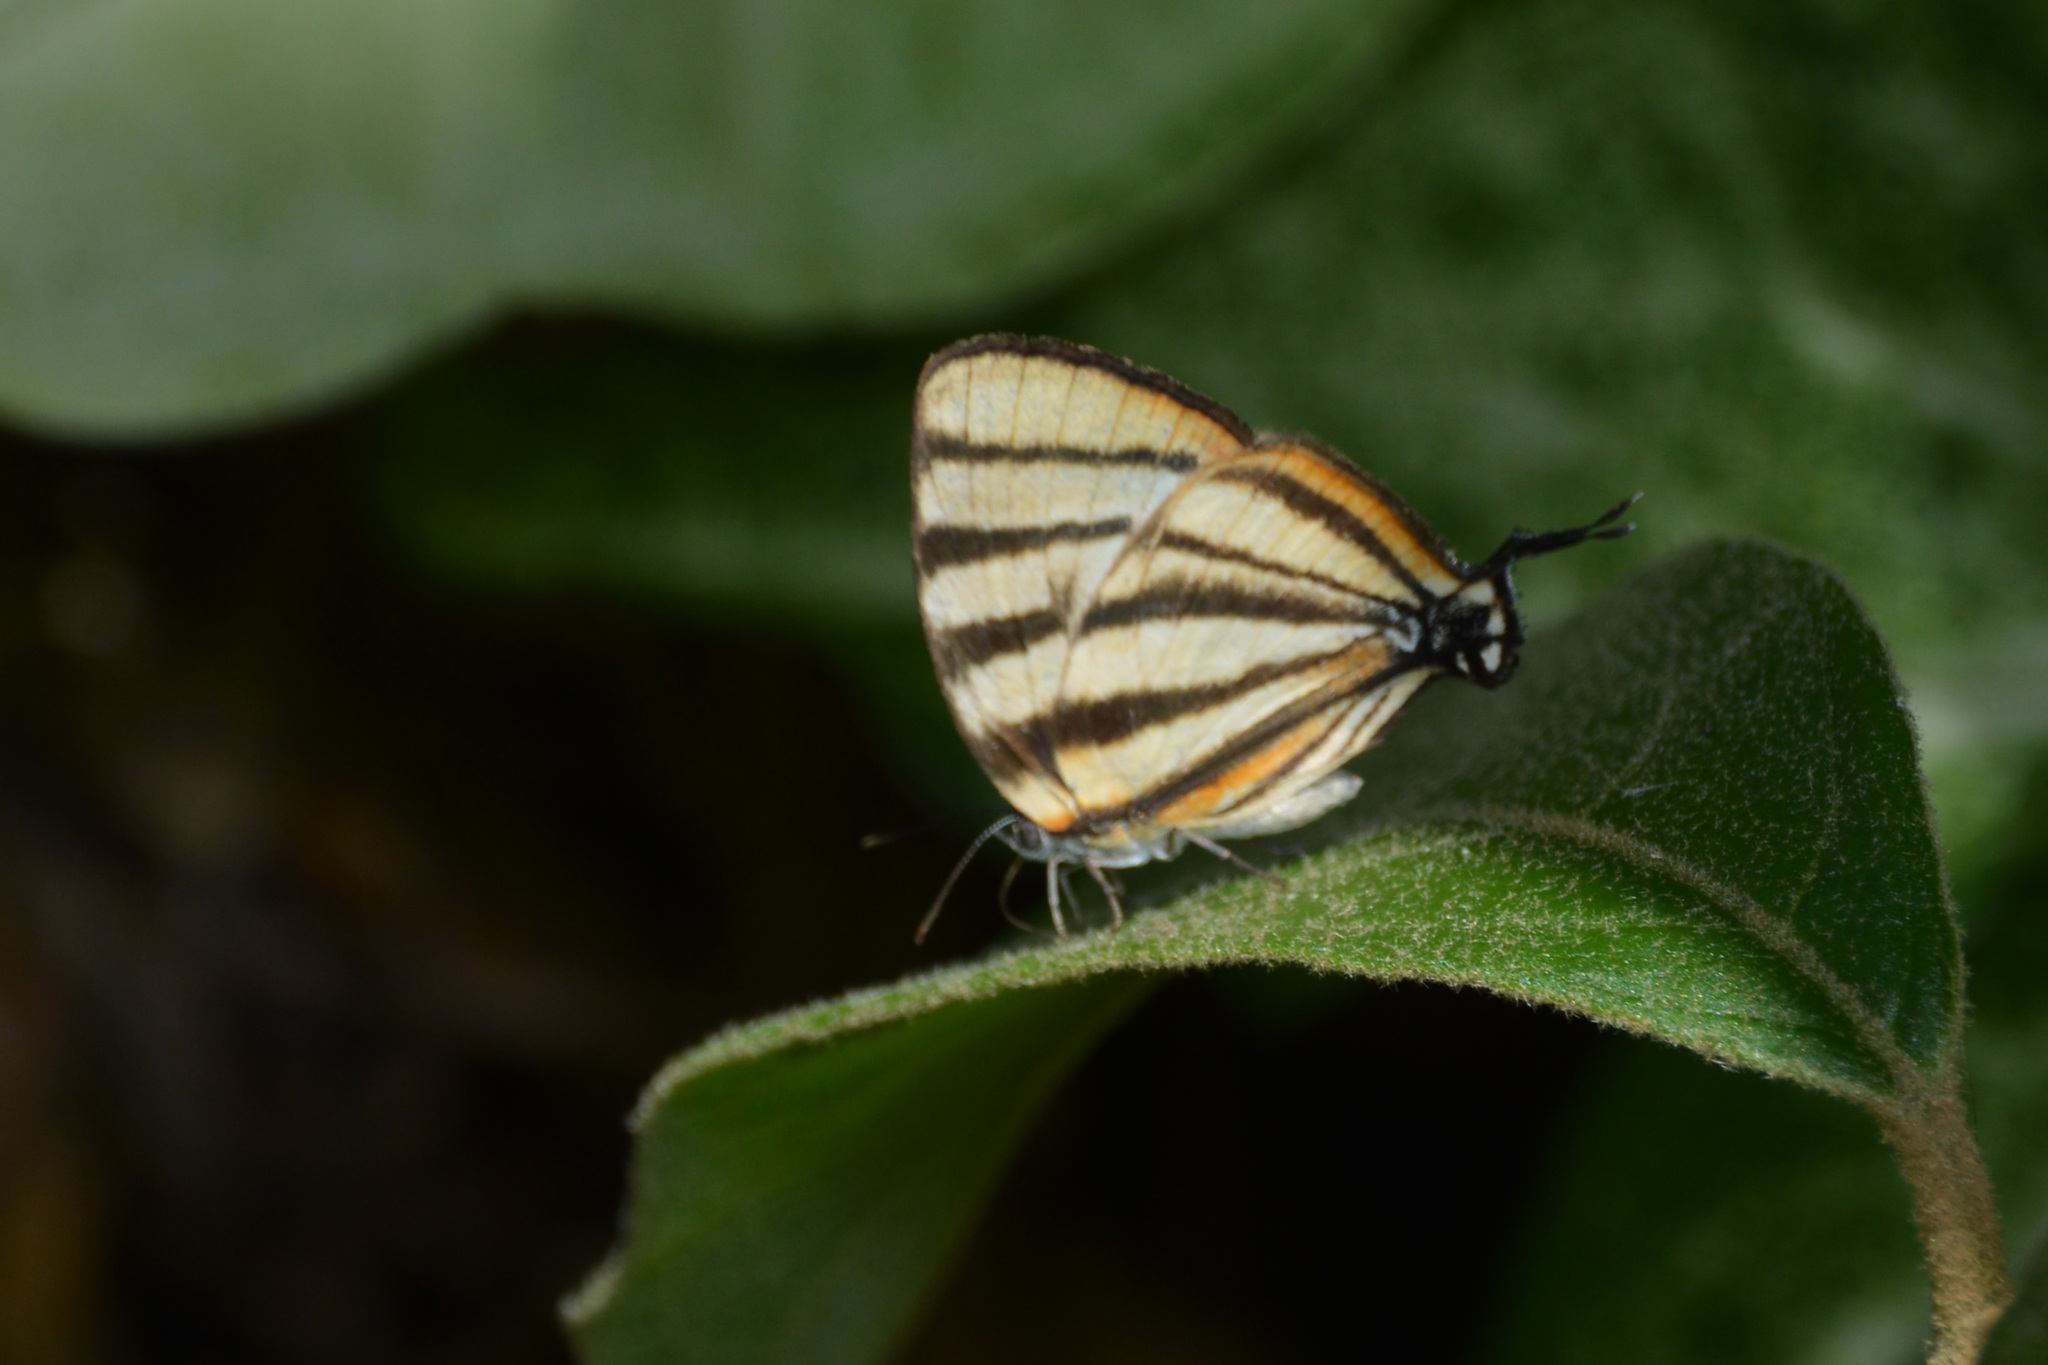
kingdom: Animalia
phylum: Arthropoda
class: Insecta
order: Lepidoptera
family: Lycaenidae
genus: Arawacus
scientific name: Arawacus separata
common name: Separated stripestreak
